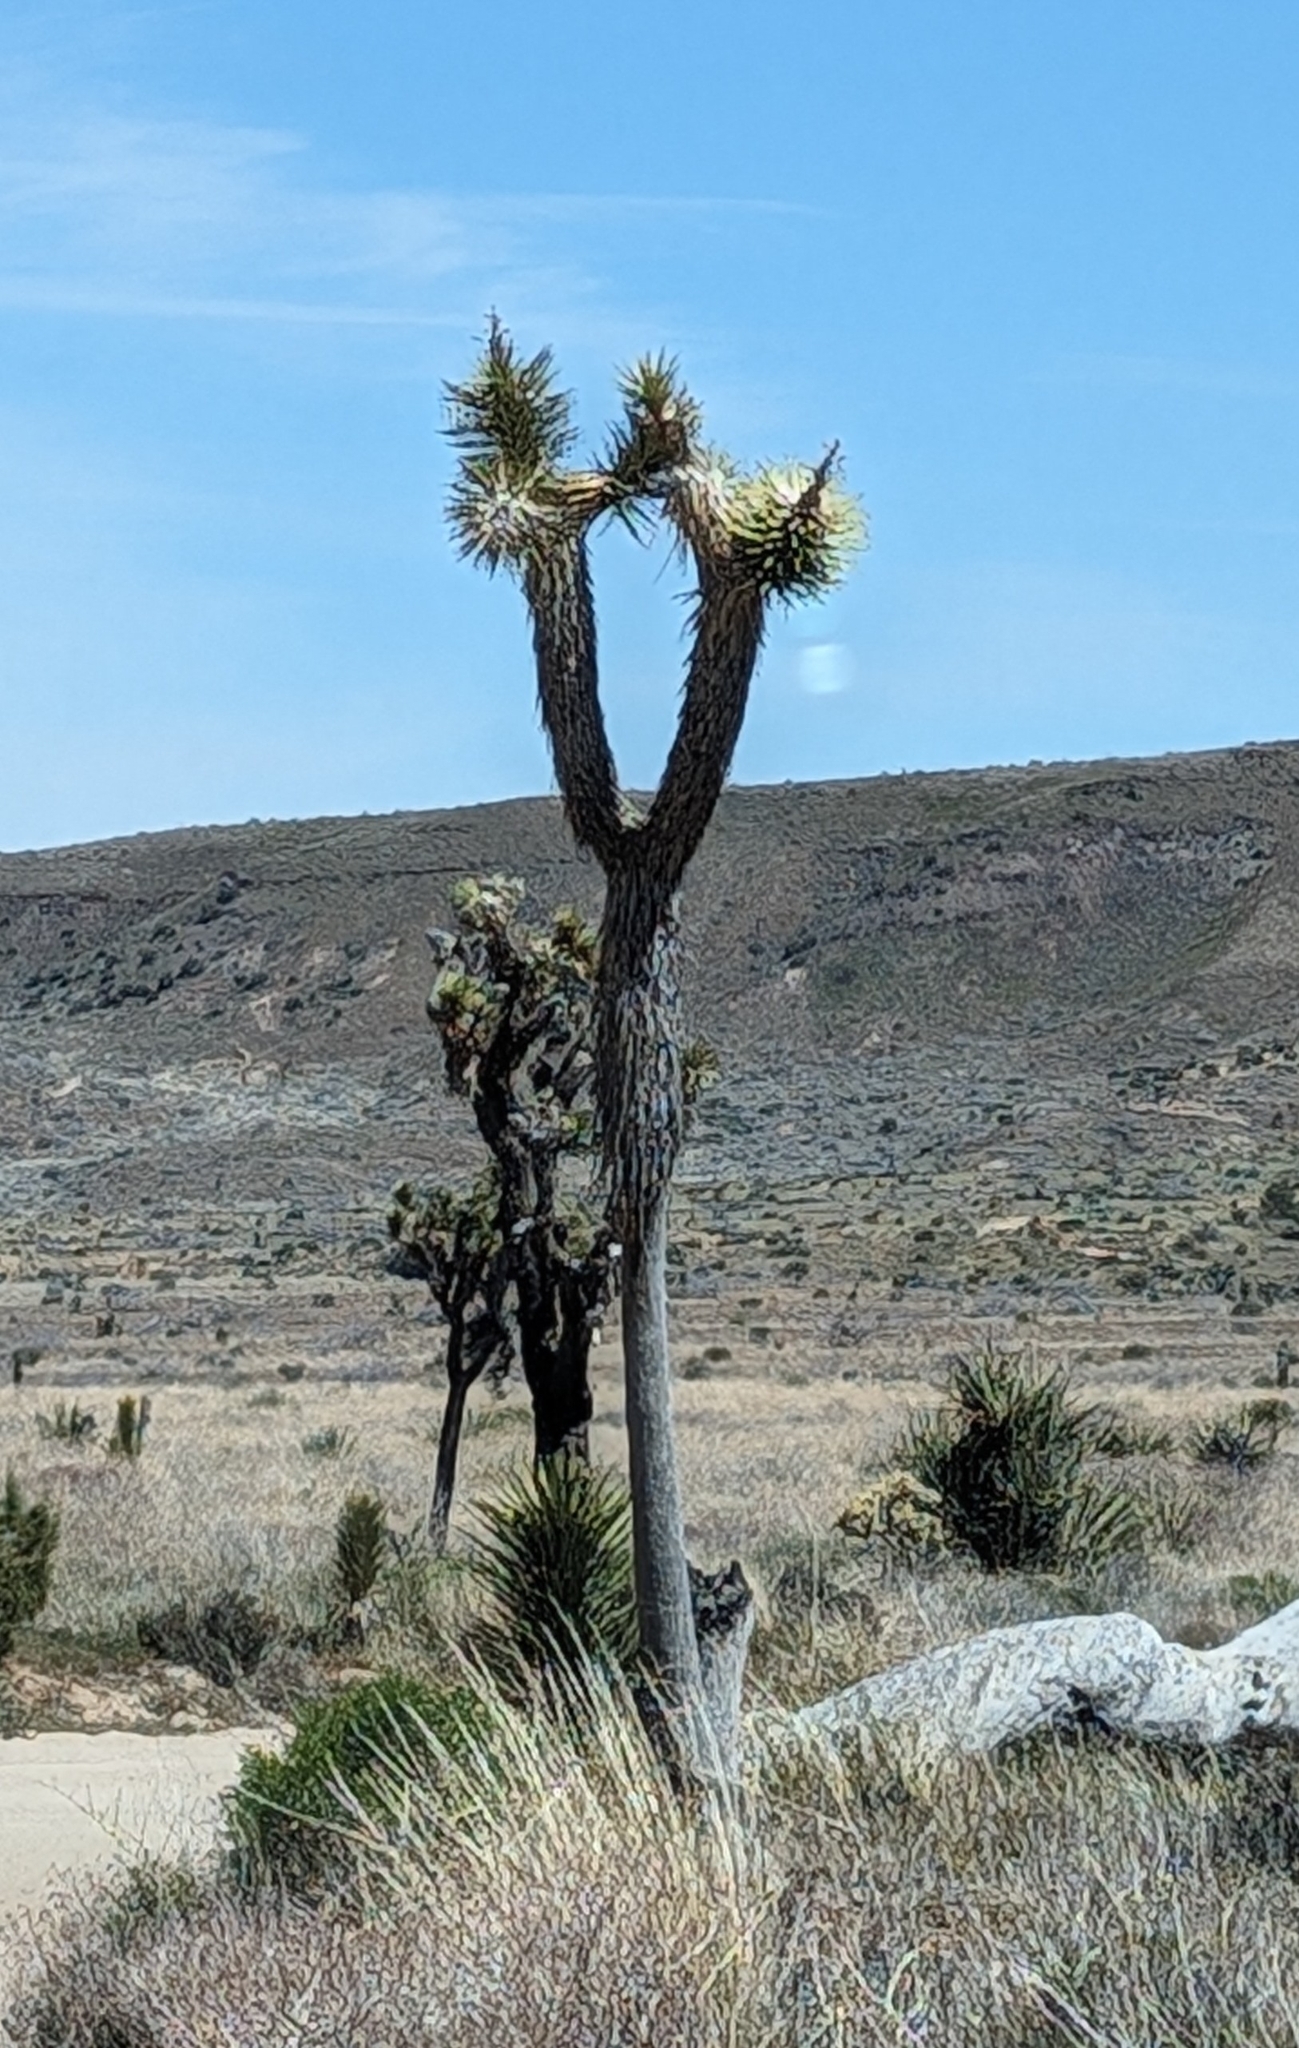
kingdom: Plantae
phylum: Tracheophyta
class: Liliopsida
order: Asparagales
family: Asparagaceae
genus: Yucca
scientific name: Yucca brevifolia
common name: Joshua tree
